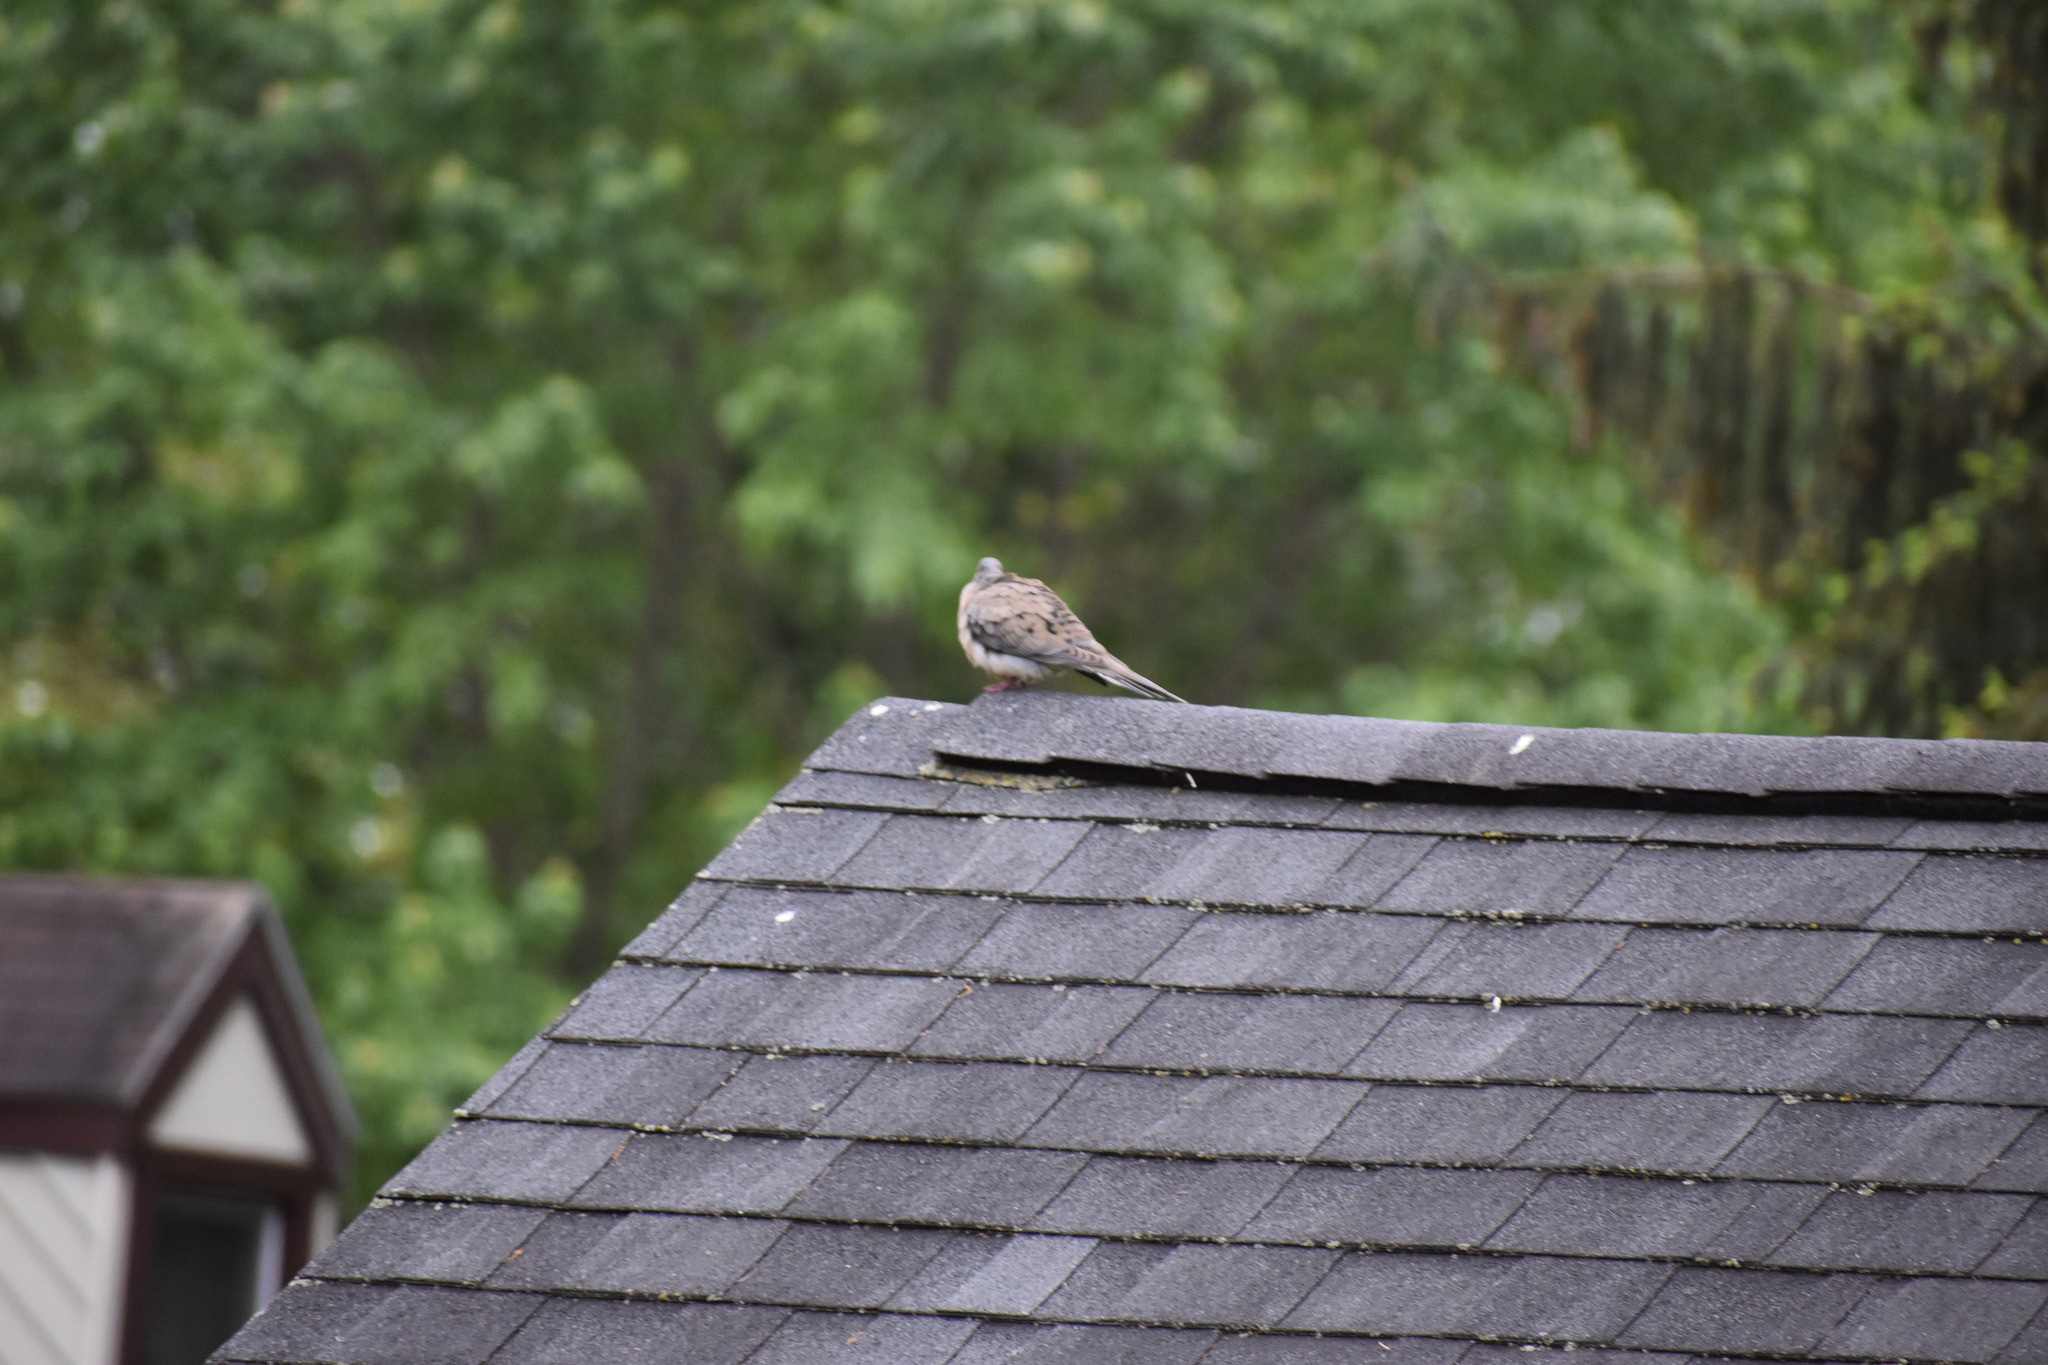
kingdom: Animalia
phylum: Chordata
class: Aves
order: Columbiformes
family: Columbidae
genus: Zenaida
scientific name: Zenaida macroura
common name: Mourning dove
